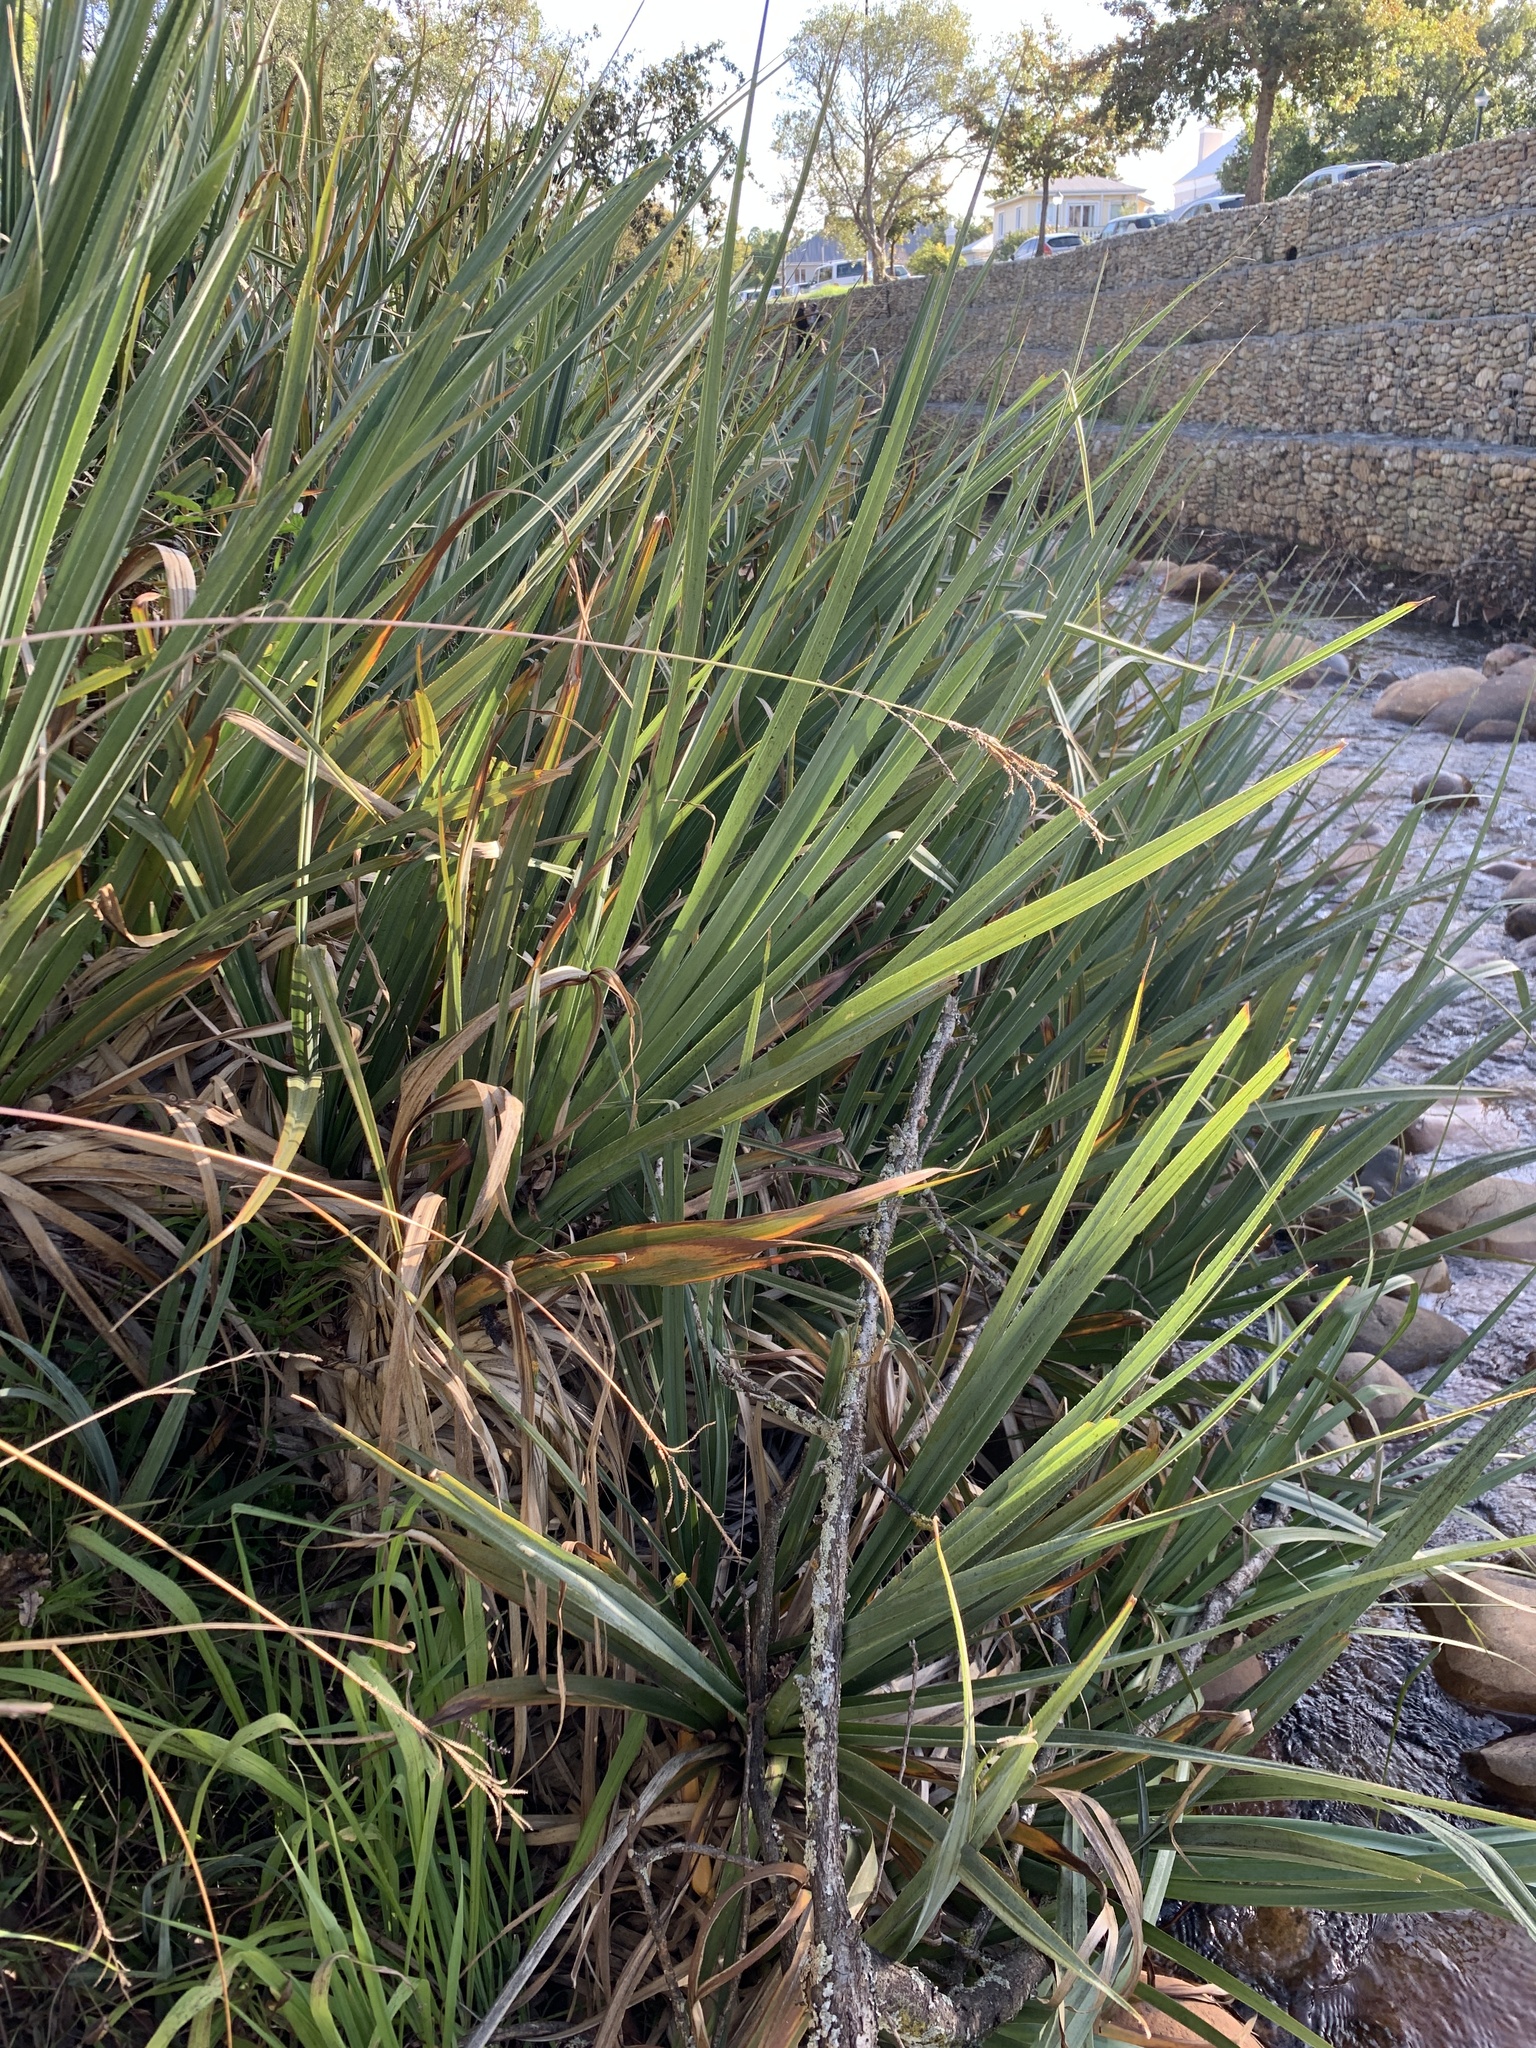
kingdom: Plantae
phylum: Tracheophyta
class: Liliopsida
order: Poales
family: Thurniaceae
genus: Prionium
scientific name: Prionium serratum
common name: Palmiet
